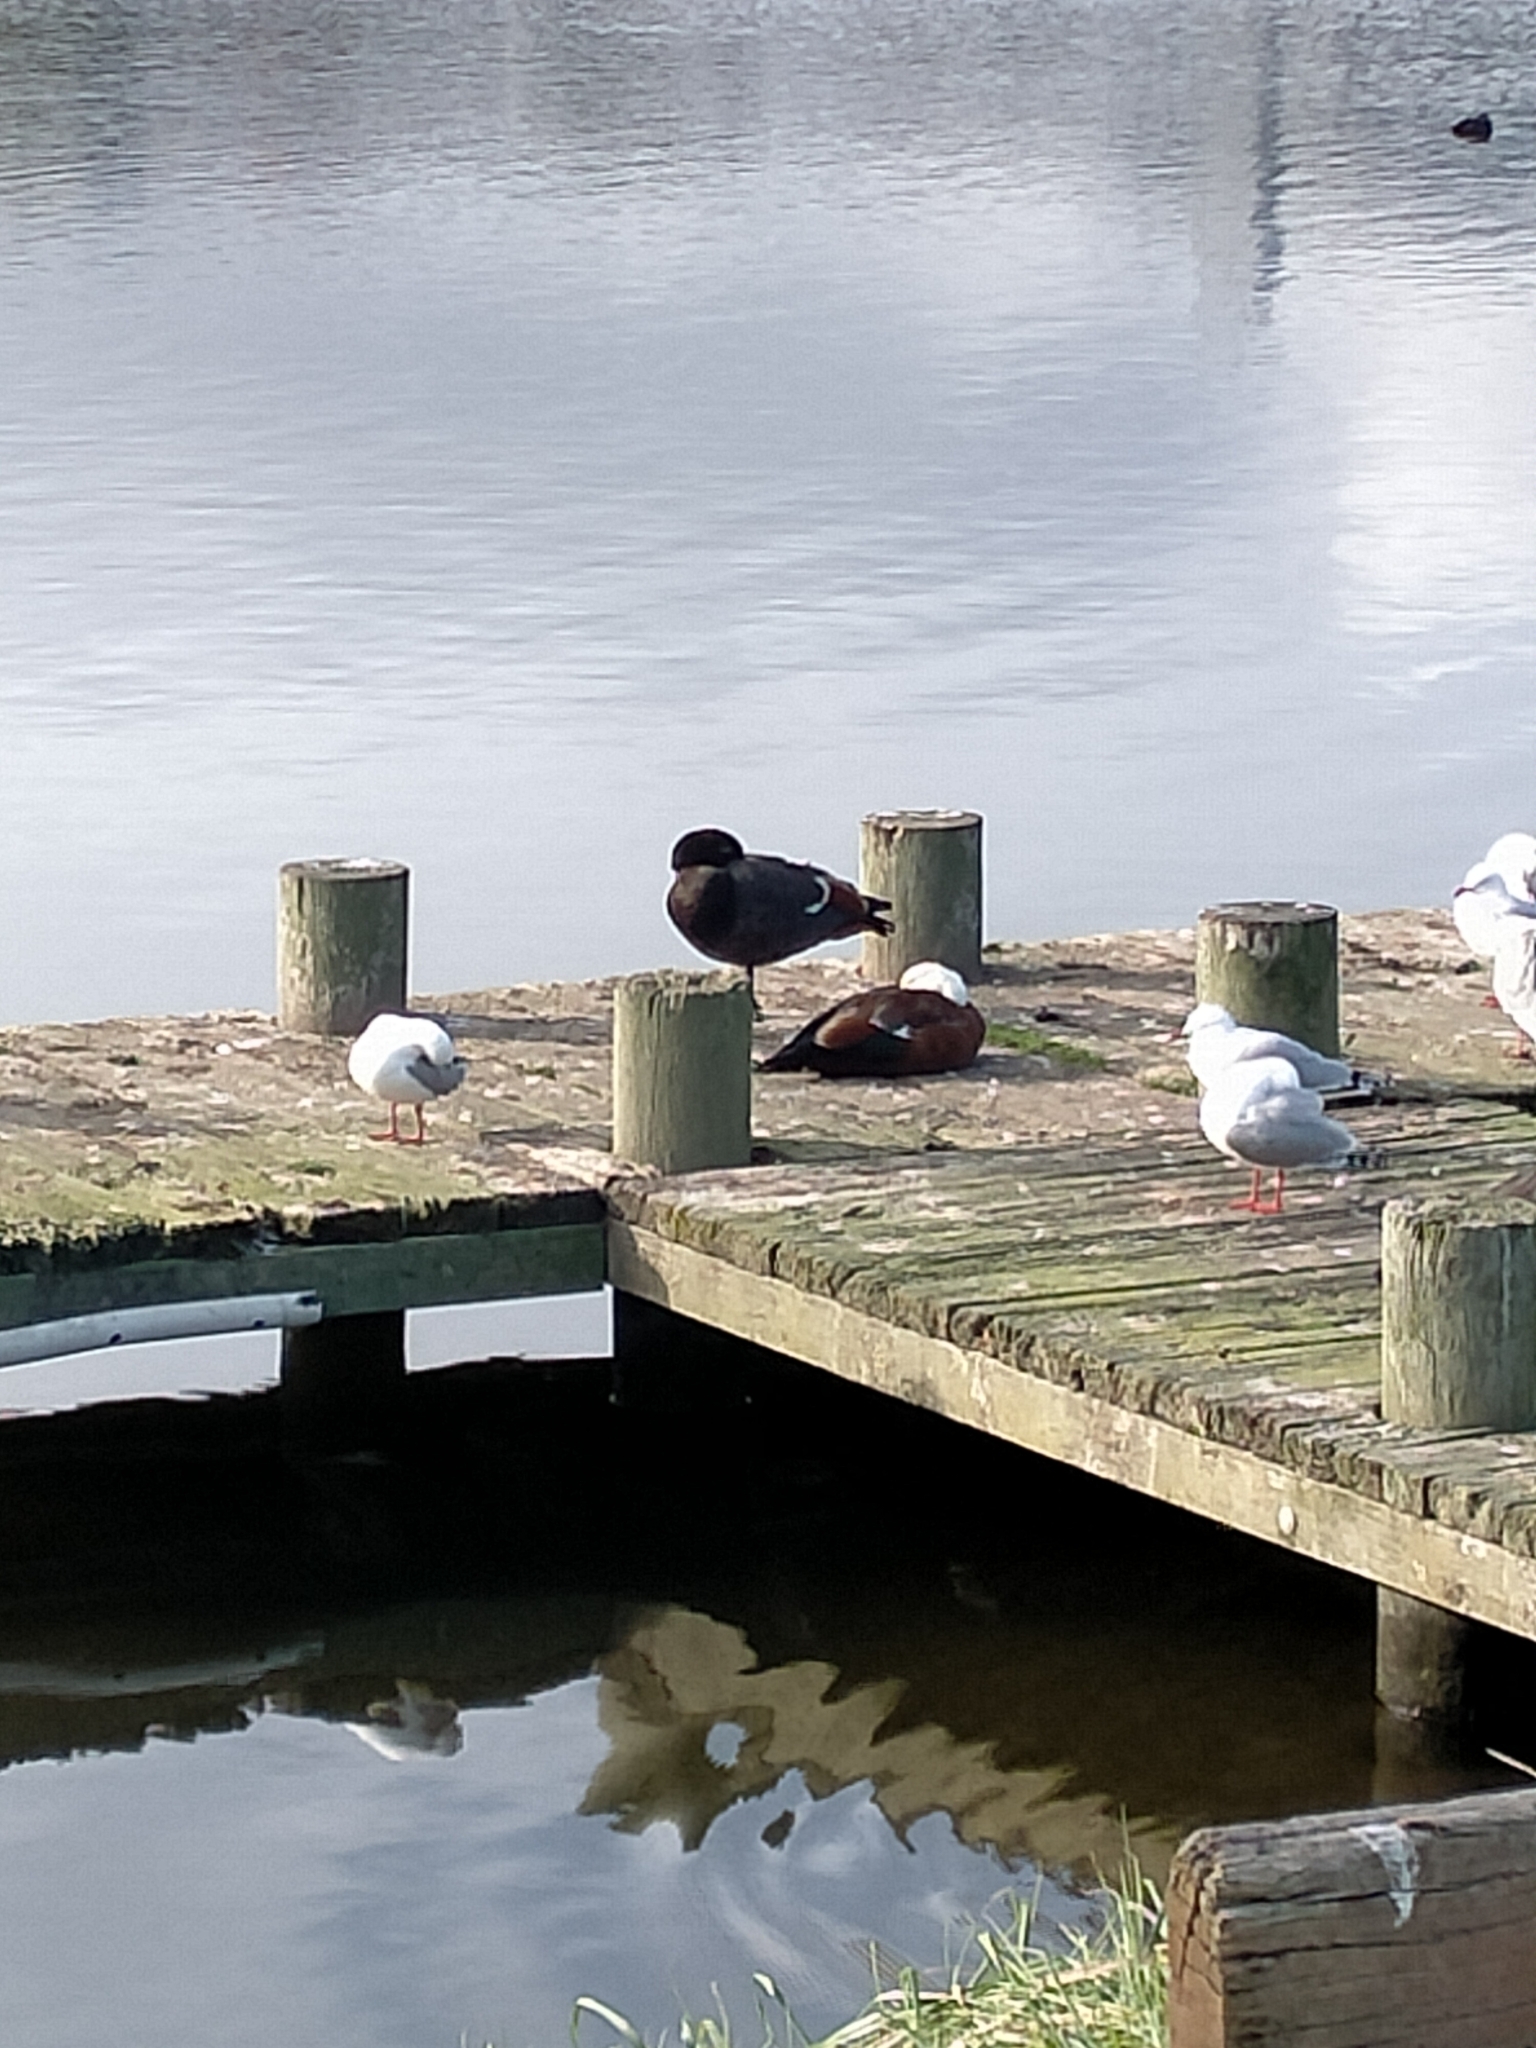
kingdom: Animalia
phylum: Chordata
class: Aves
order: Anseriformes
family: Anatidae
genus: Tadorna
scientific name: Tadorna variegata
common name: Paradise shelduck
